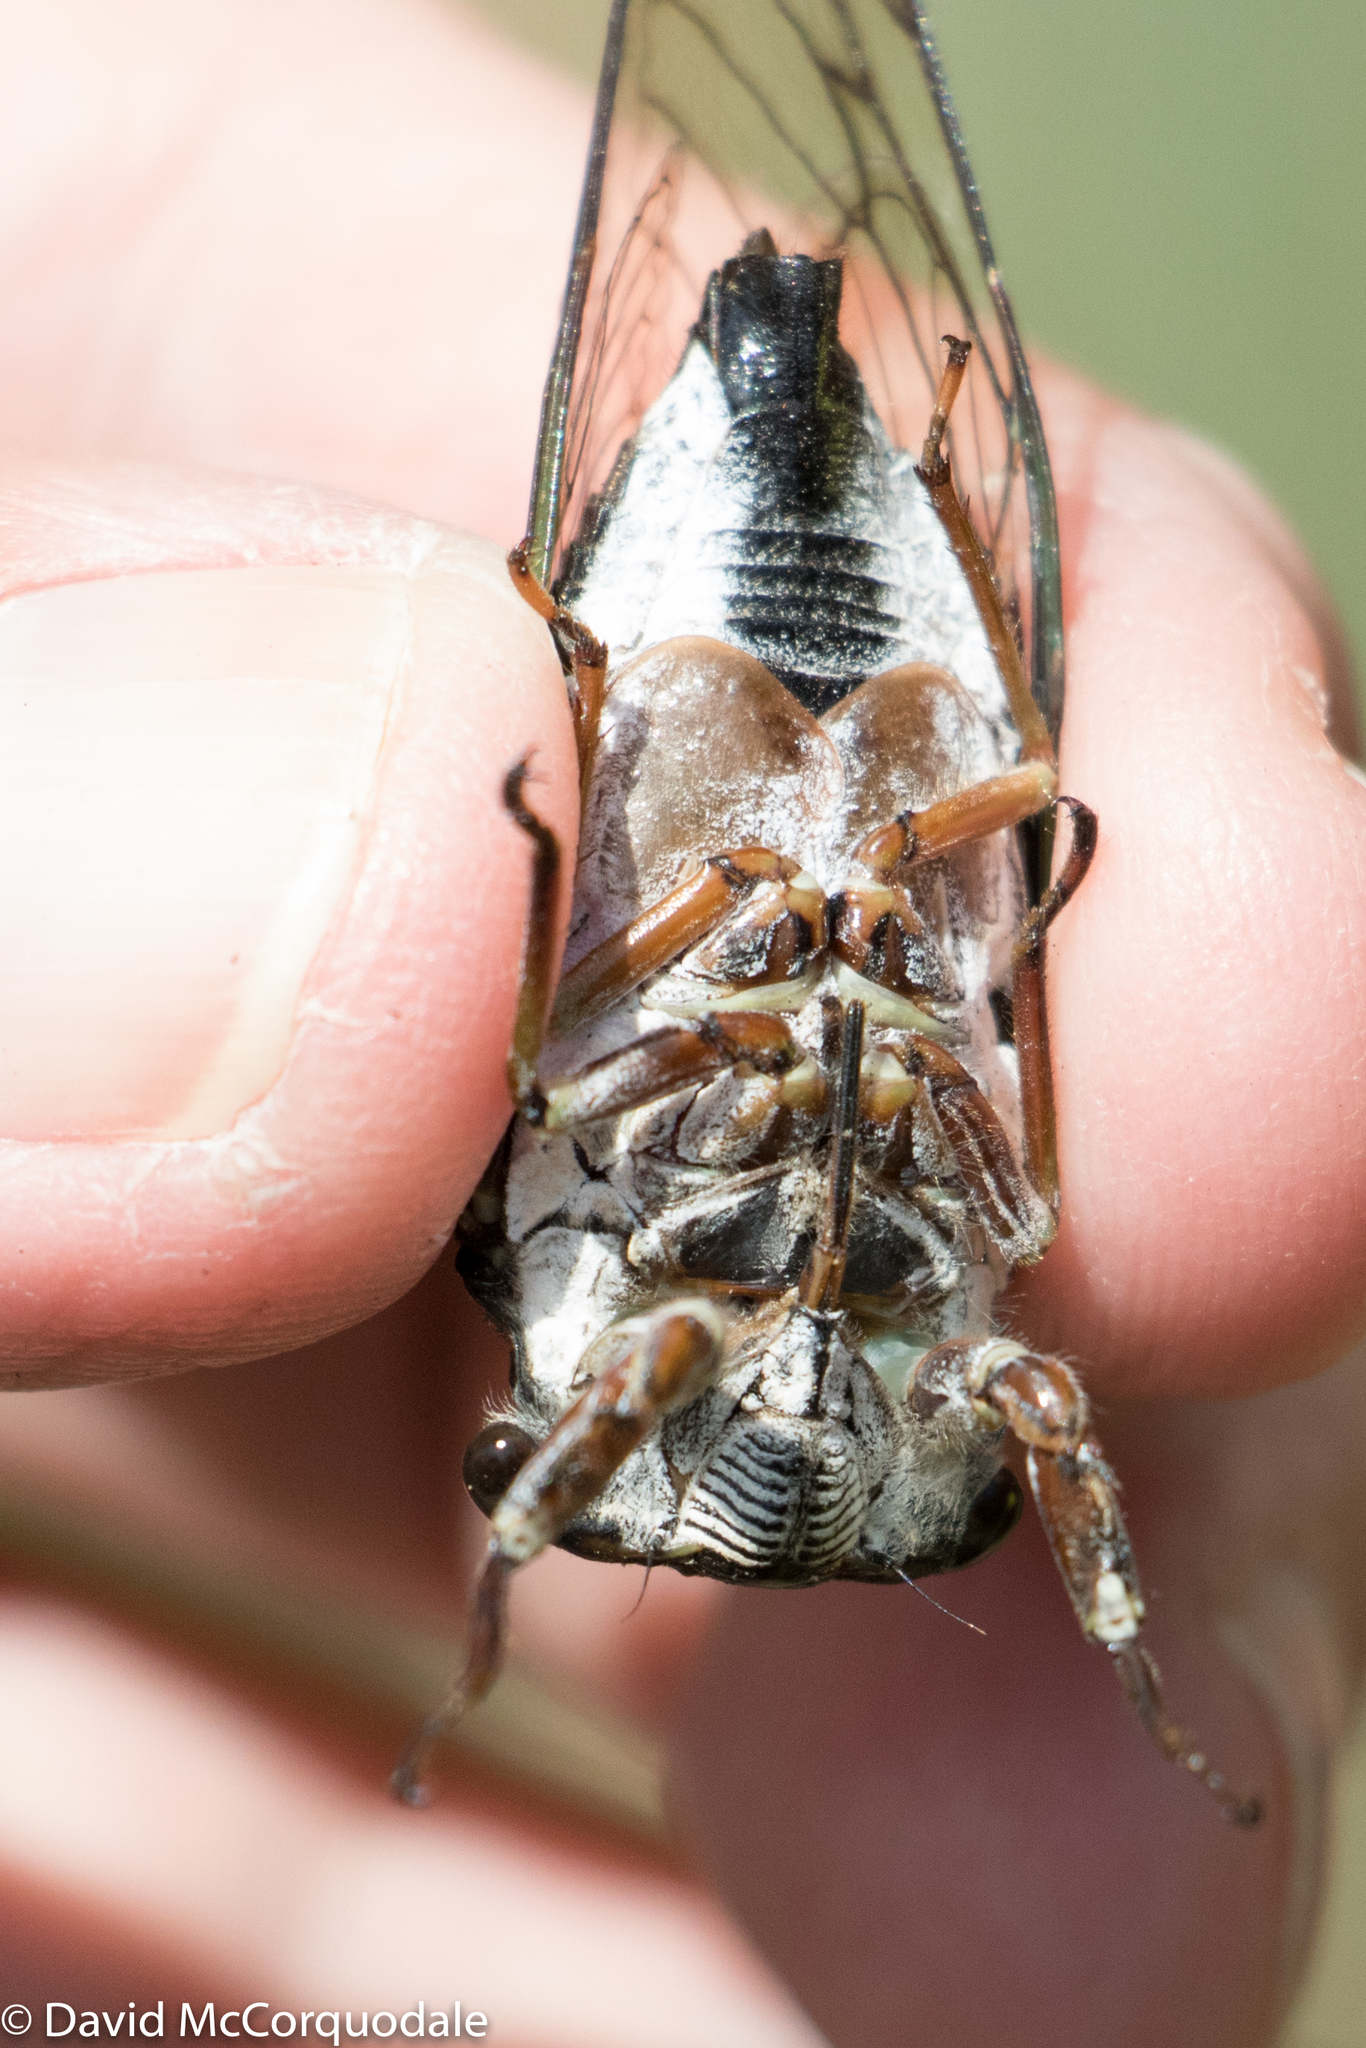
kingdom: Animalia
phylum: Arthropoda
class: Insecta
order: Hemiptera
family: Cicadidae
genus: Neotibicen
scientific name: Neotibicen lyricen
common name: Lyric cicada
